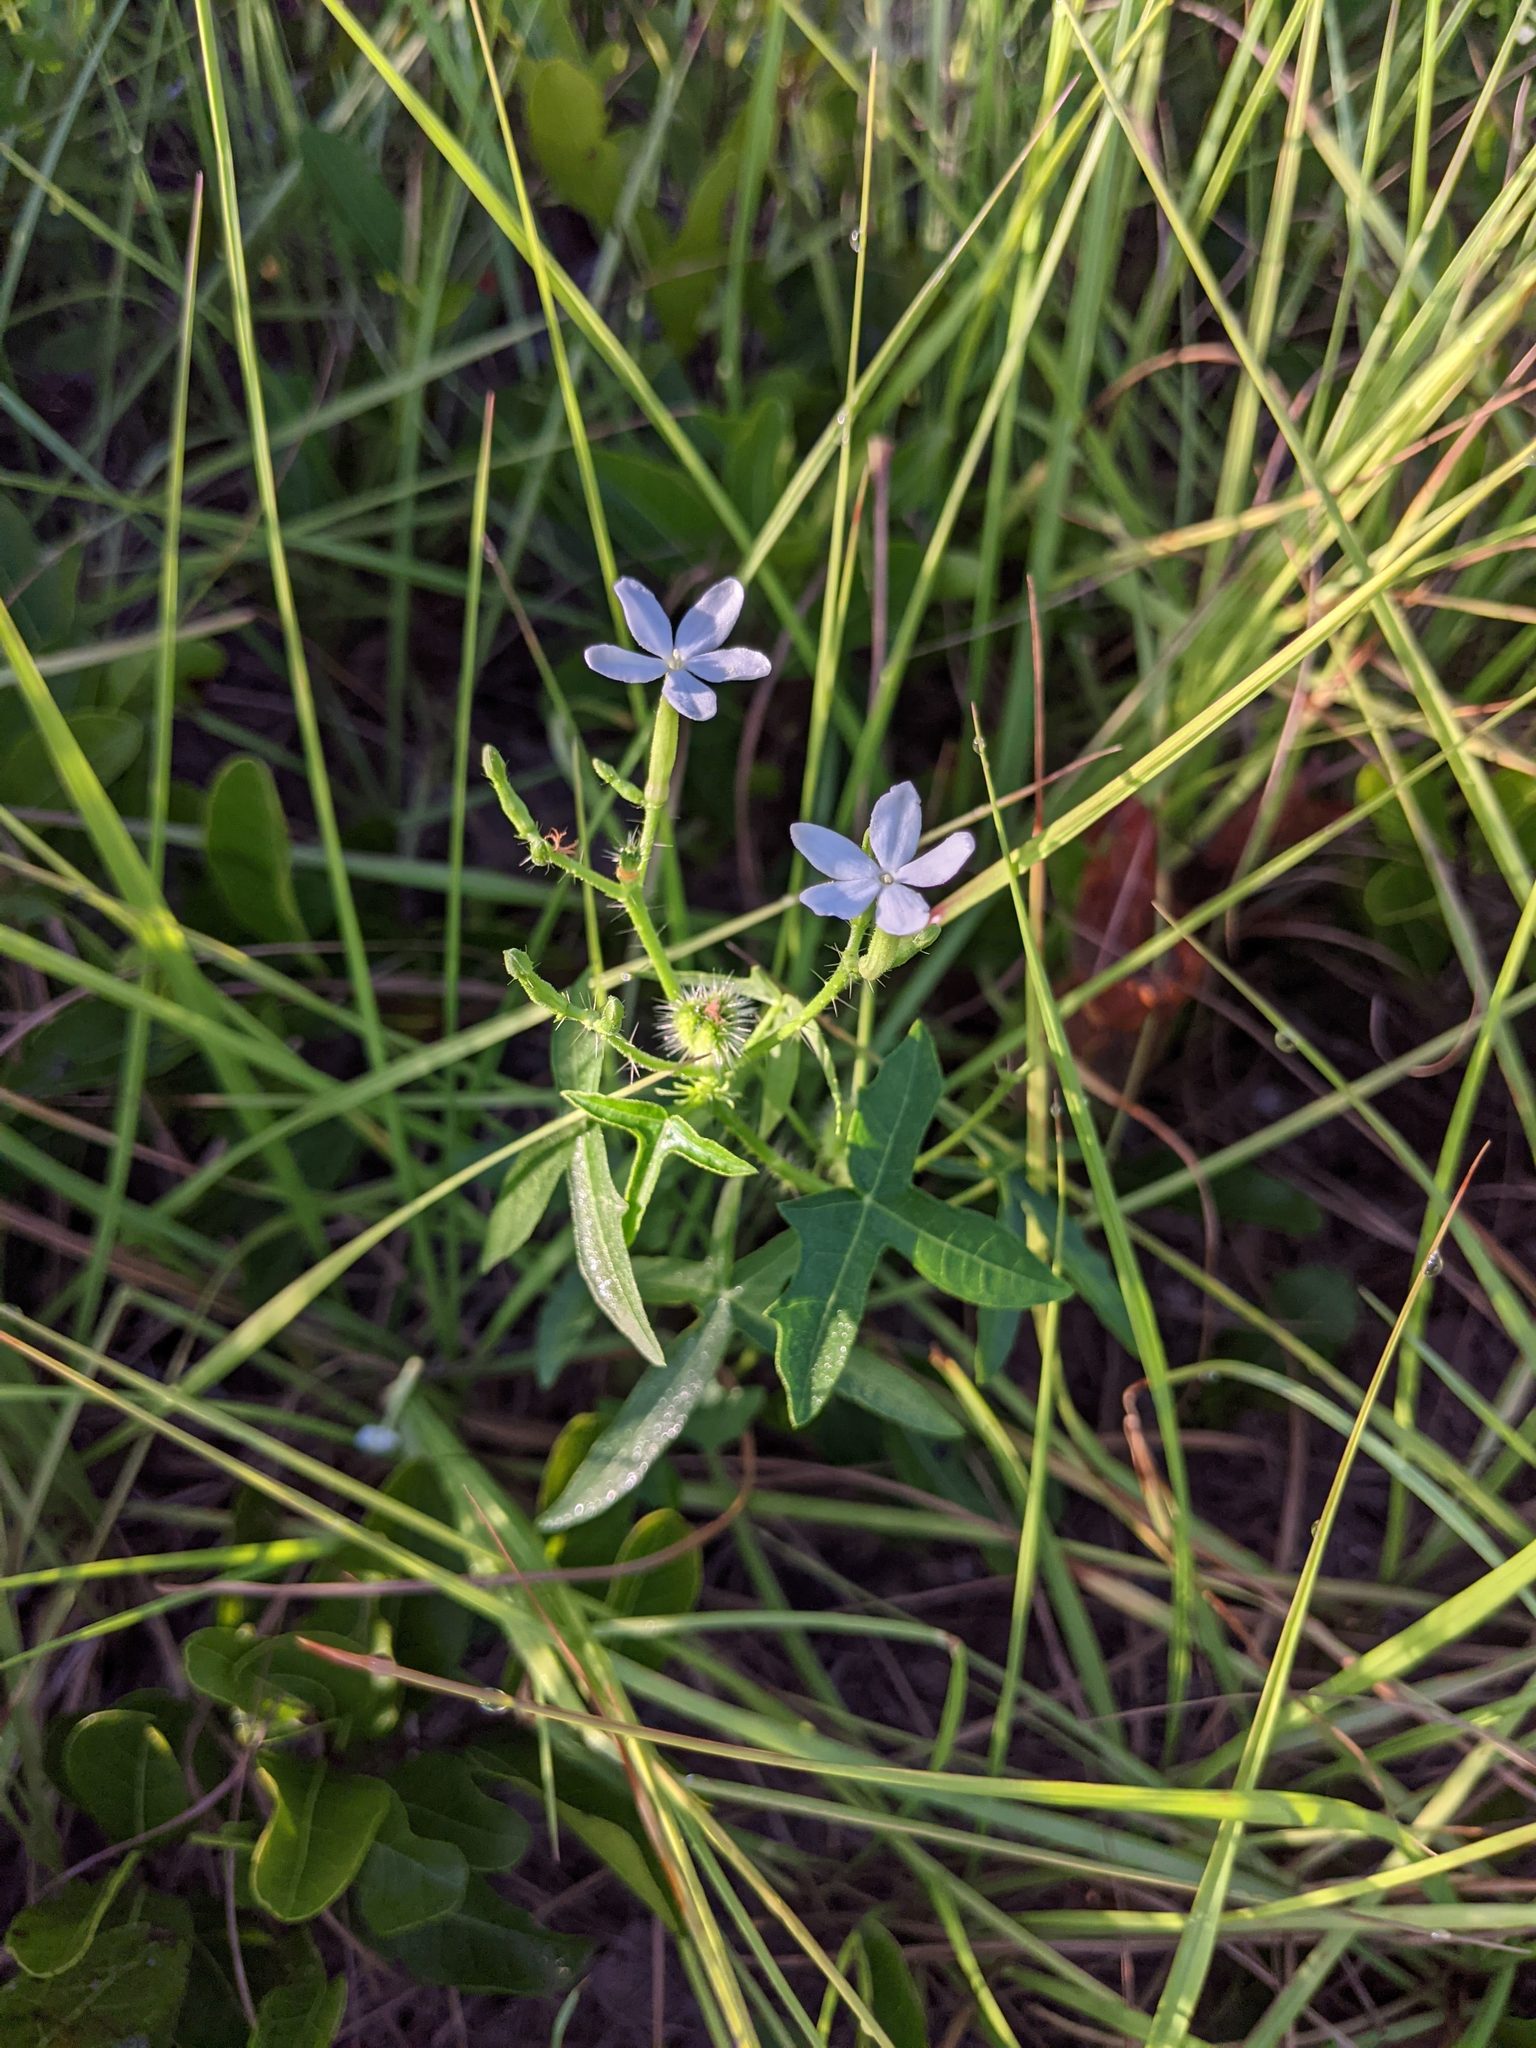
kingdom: Plantae
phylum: Tracheophyta
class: Magnoliopsida
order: Malpighiales
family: Euphorbiaceae
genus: Cnidoscolus
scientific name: Cnidoscolus stimulosus
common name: Bull-nettle
